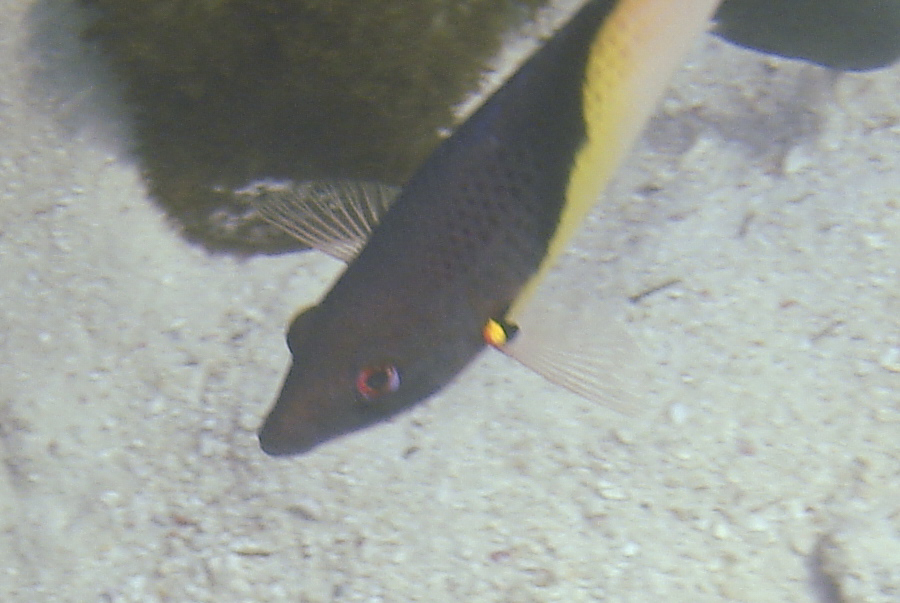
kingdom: Animalia
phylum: Chordata
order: Perciformes
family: Labridae
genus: Bodianus
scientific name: Bodianus mesothorax
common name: Coral hogfish
